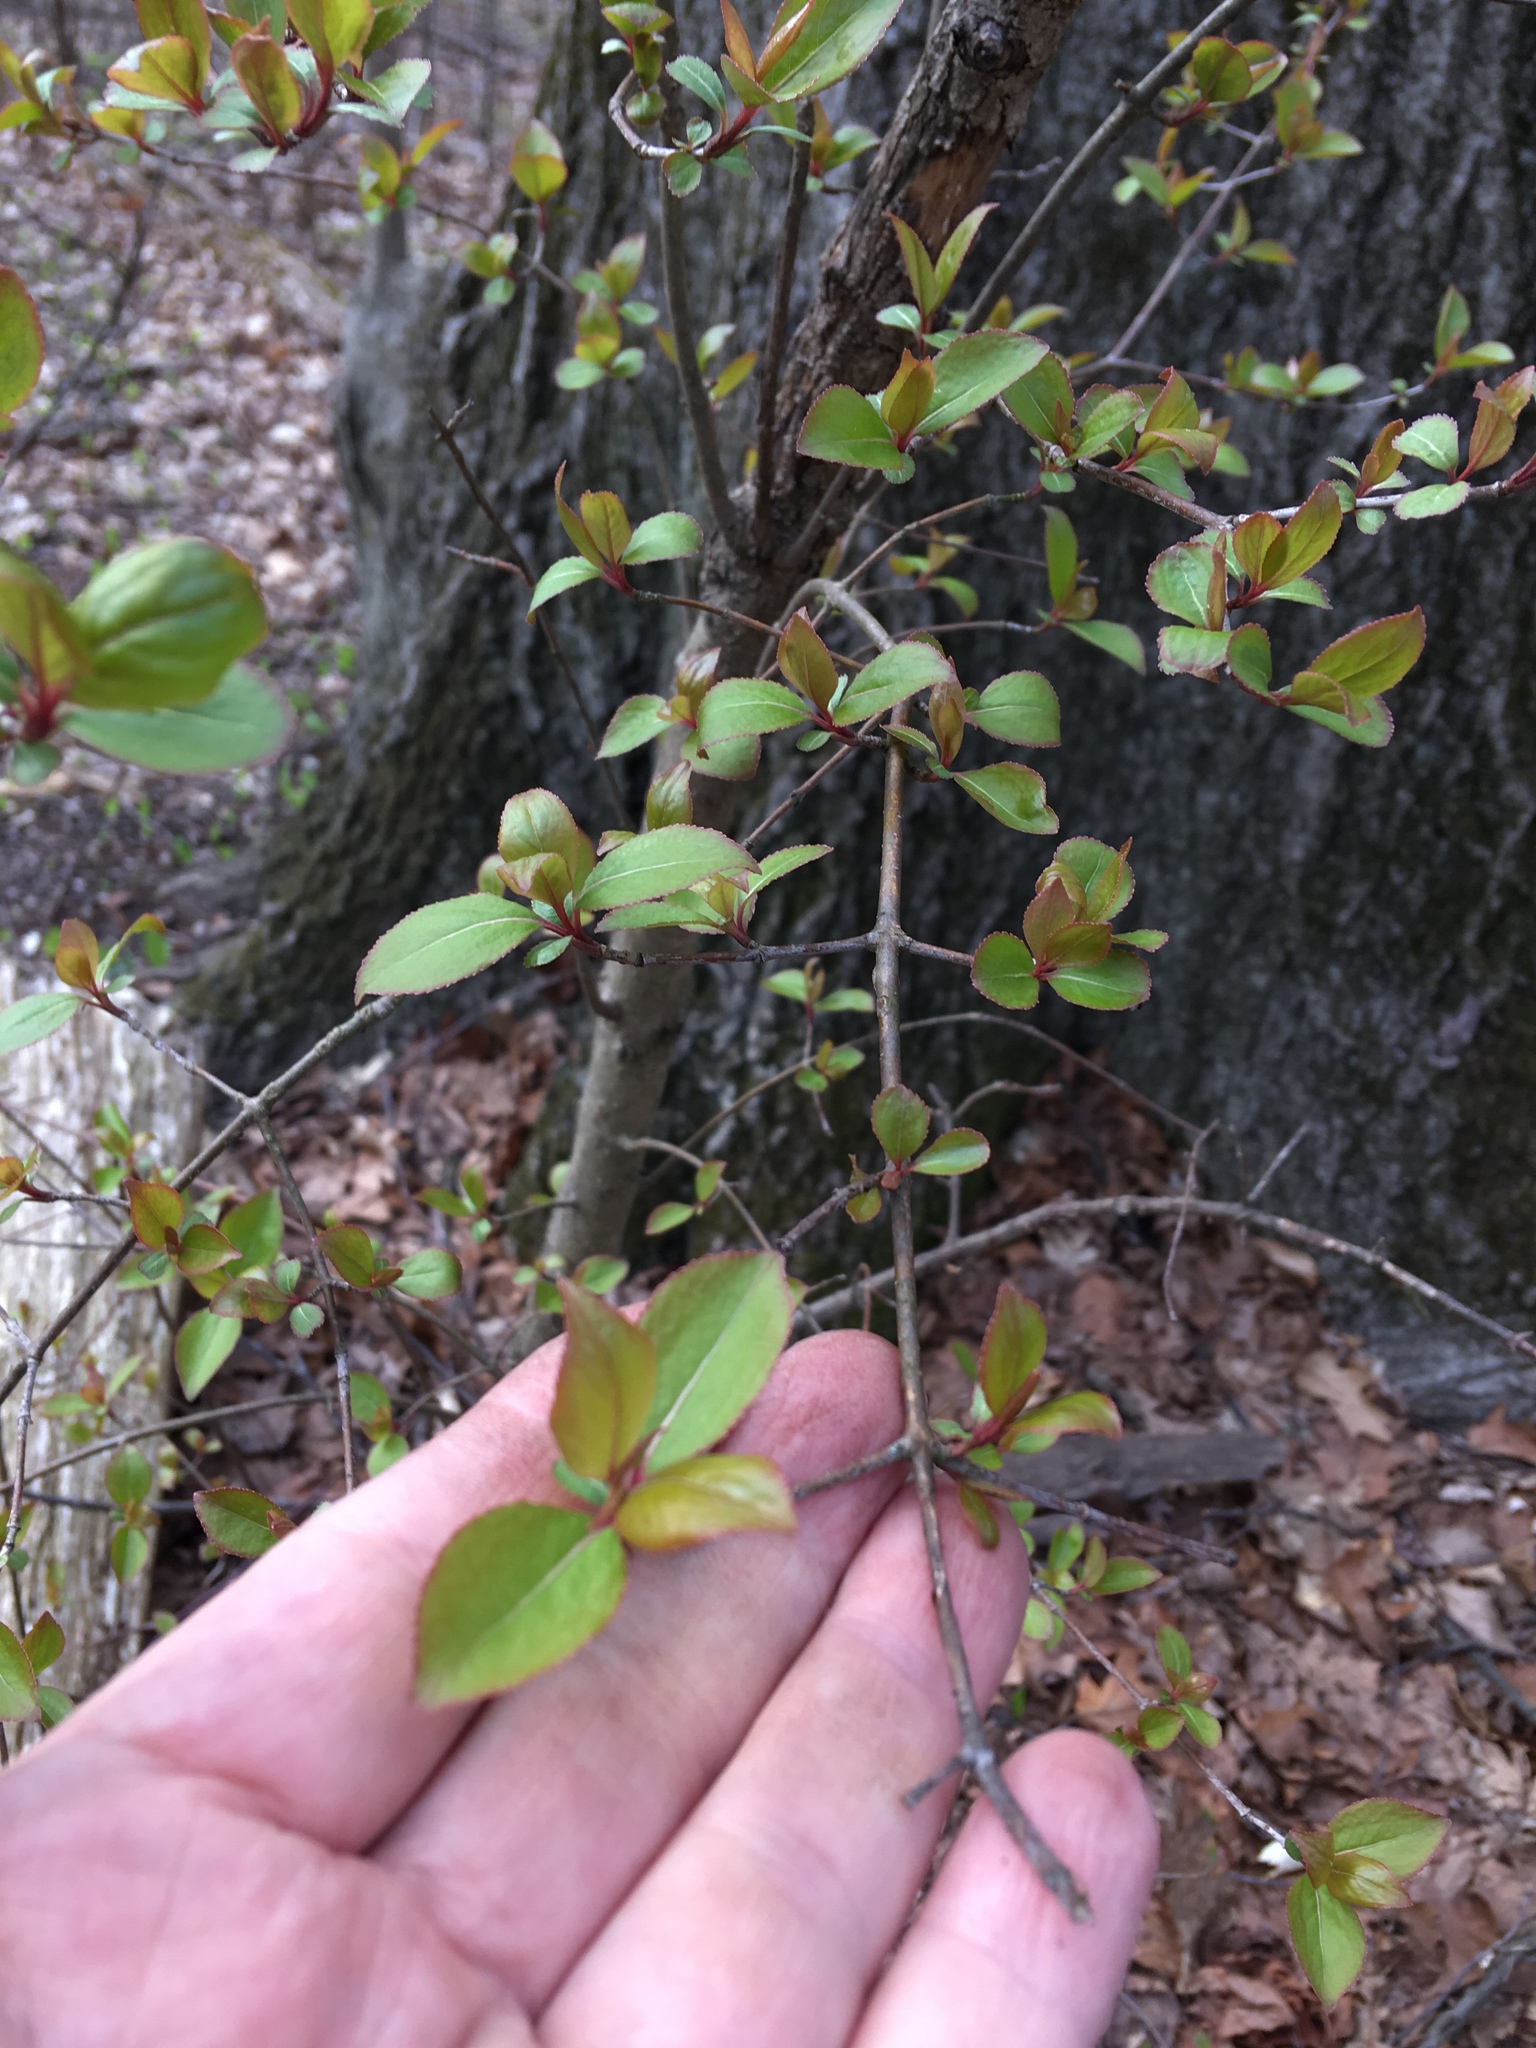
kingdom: Plantae
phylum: Tracheophyta
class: Magnoliopsida
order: Dipsacales
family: Viburnaceae
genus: Viburnum
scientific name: Viburnum prunifolium
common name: Black haw
